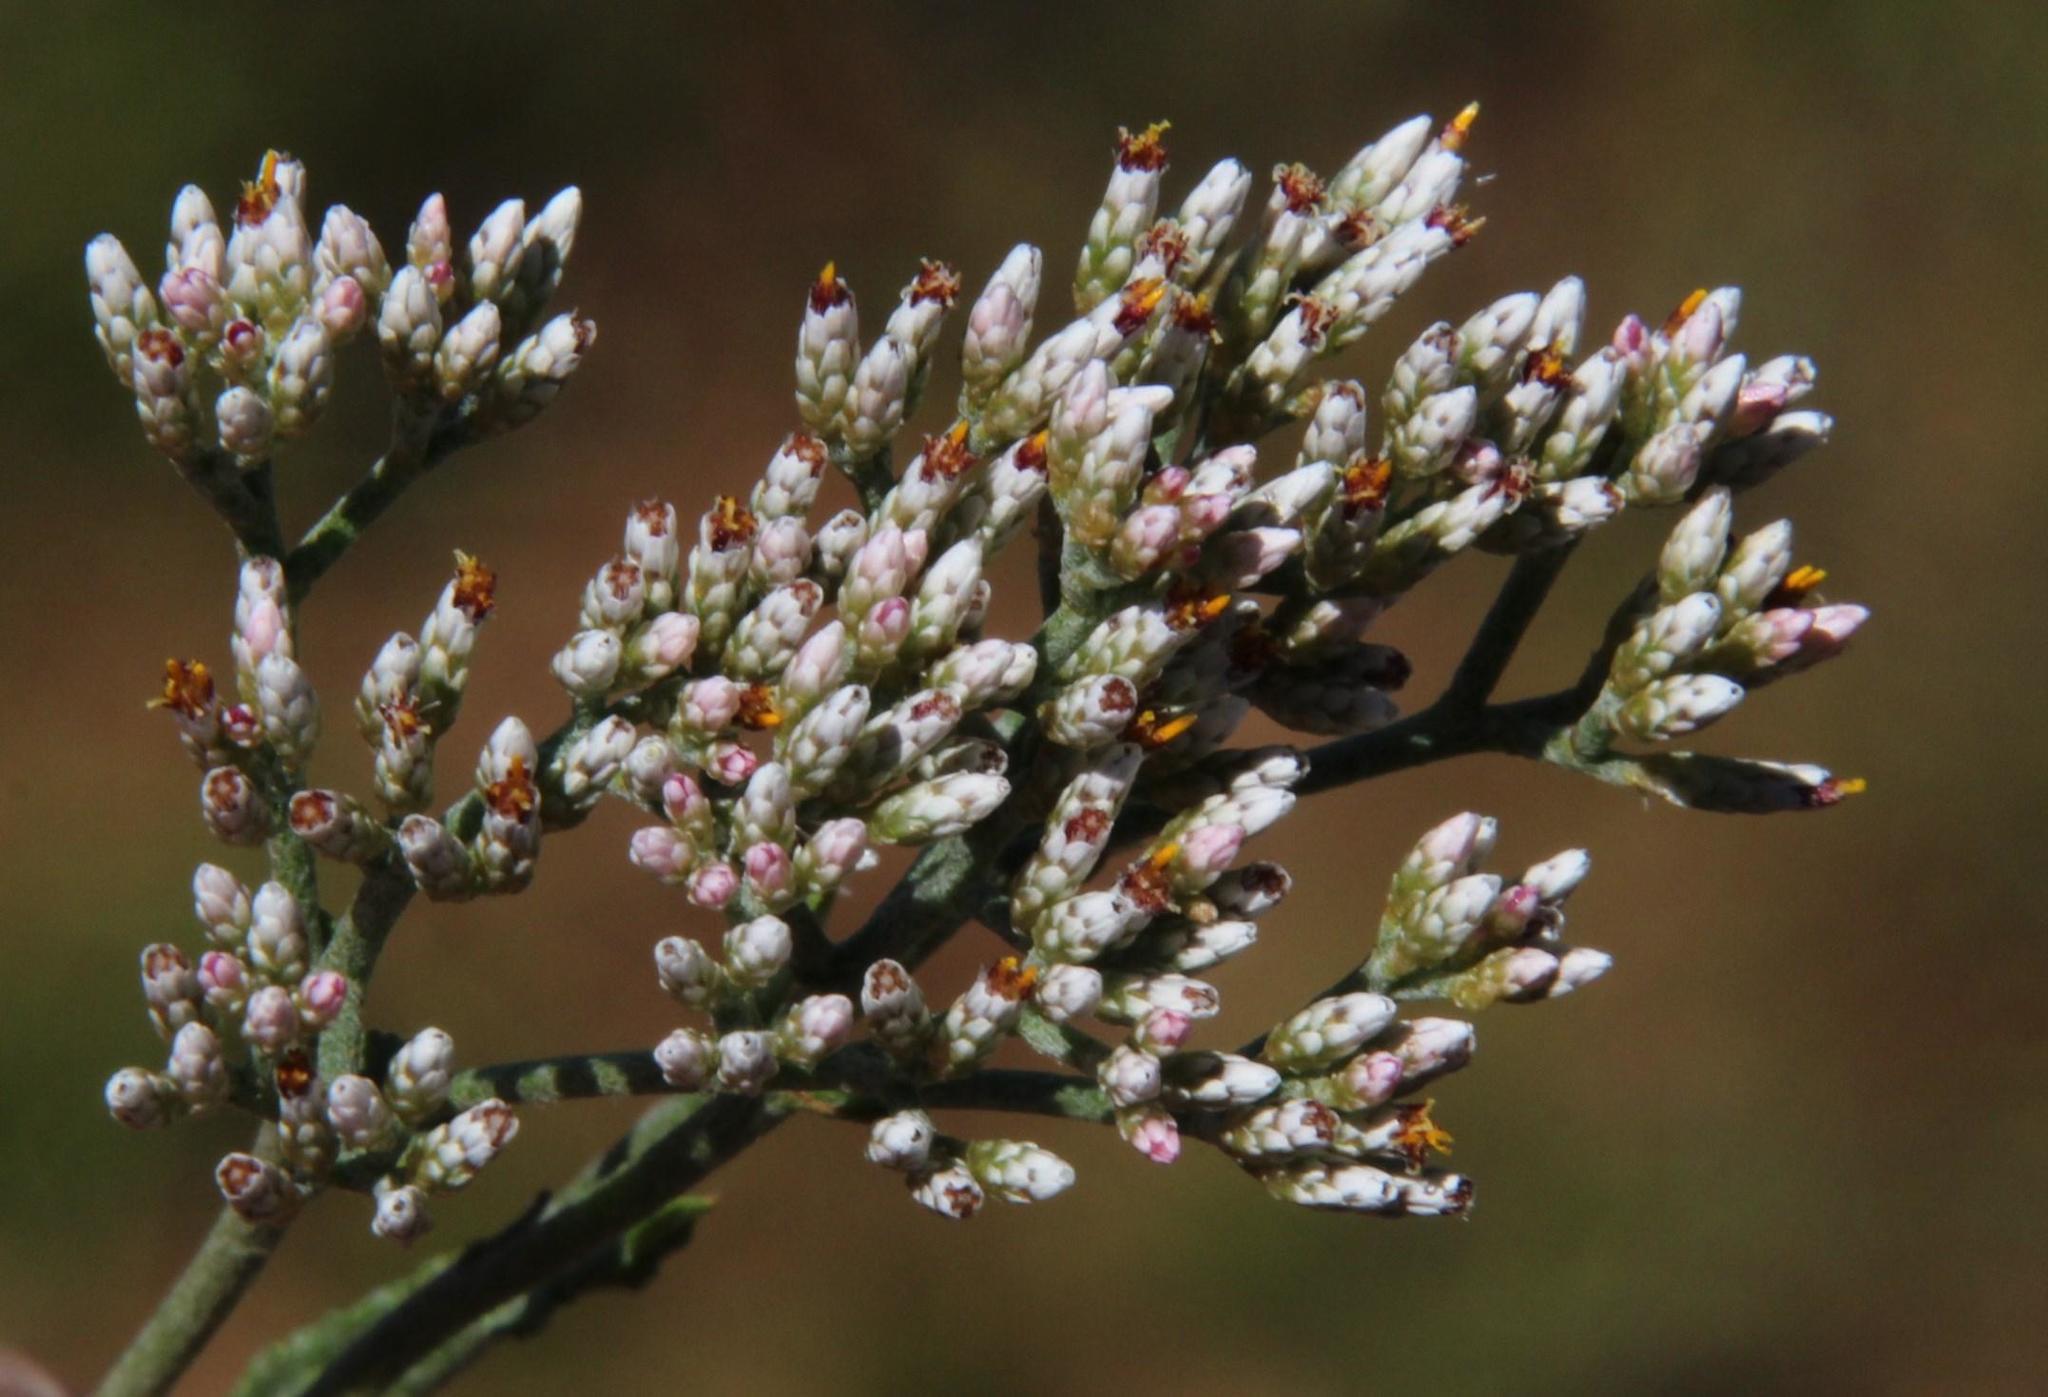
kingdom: Plantae
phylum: Tracheophyta
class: Magnoliopsida
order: Asterales
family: Asteraceae
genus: Helichrysum
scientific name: Helichrysum zeyheri
